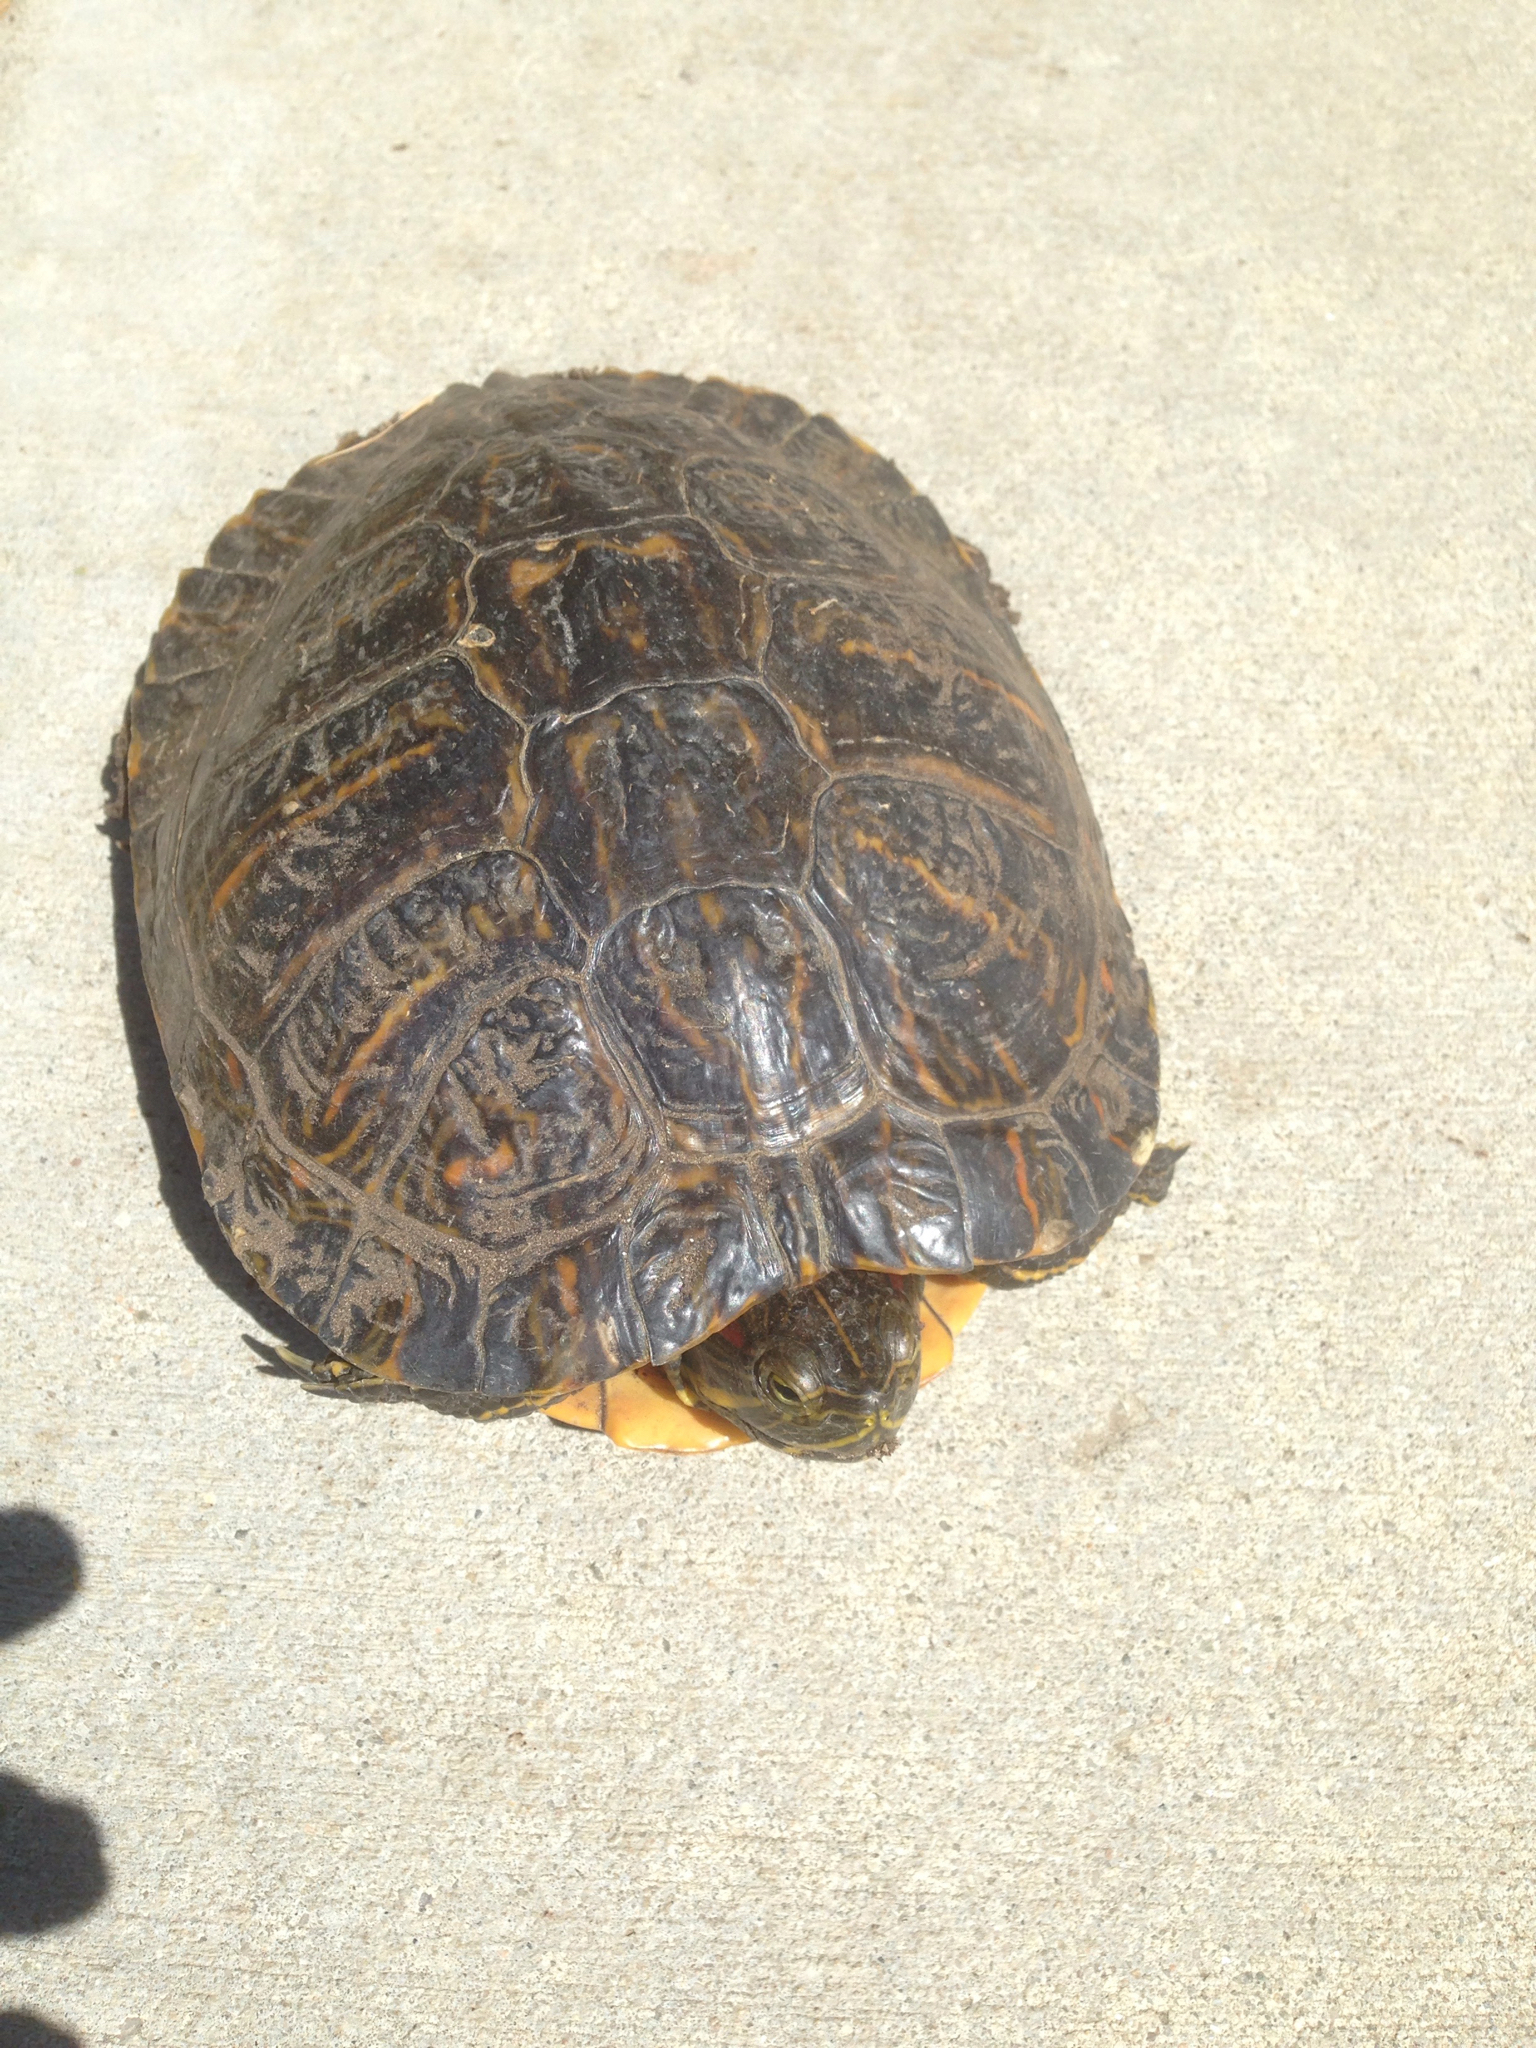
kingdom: Animalia
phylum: Chordata
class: Testudines
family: Emydidae
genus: Trachemys
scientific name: Trachemys scripta
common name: Slider
